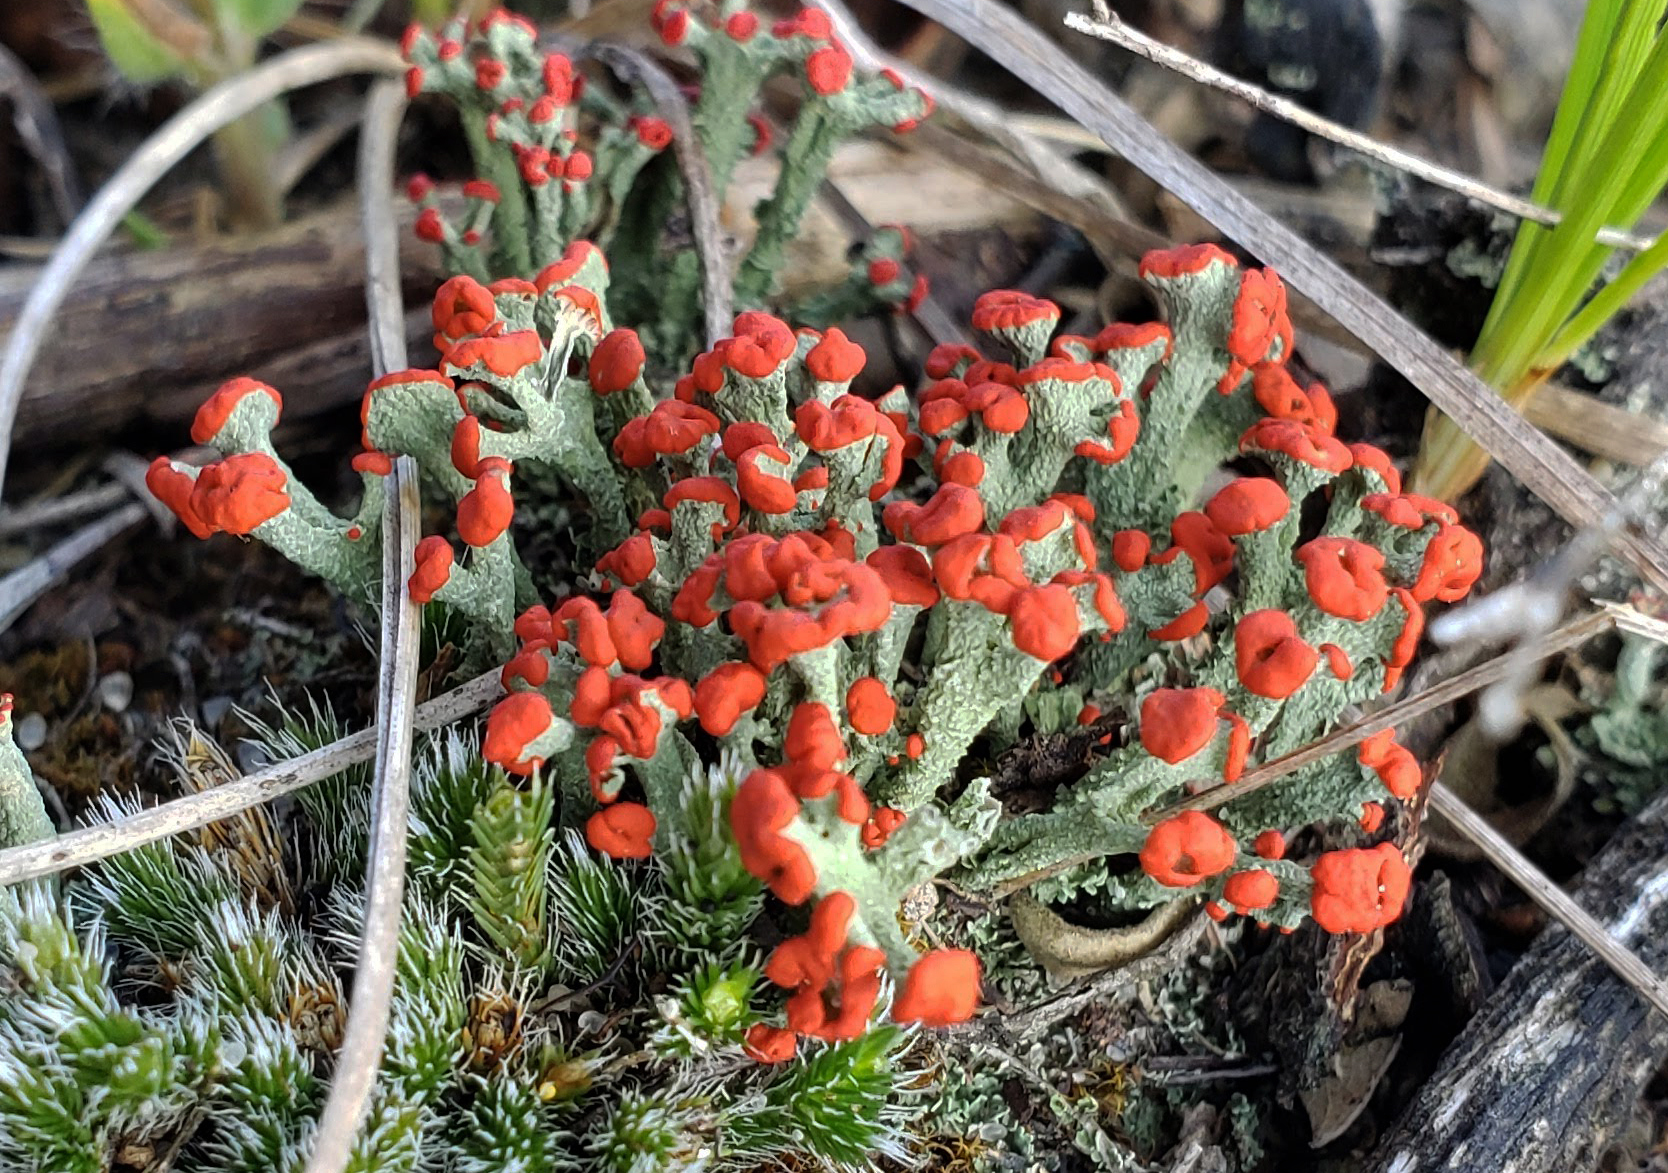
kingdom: Fungi
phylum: Ascomycota
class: Lecanoromycetes
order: Lecanorales
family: Cladoniaceae
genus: Cladonia
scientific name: Cladonia cristatella
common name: British soldier lichen
